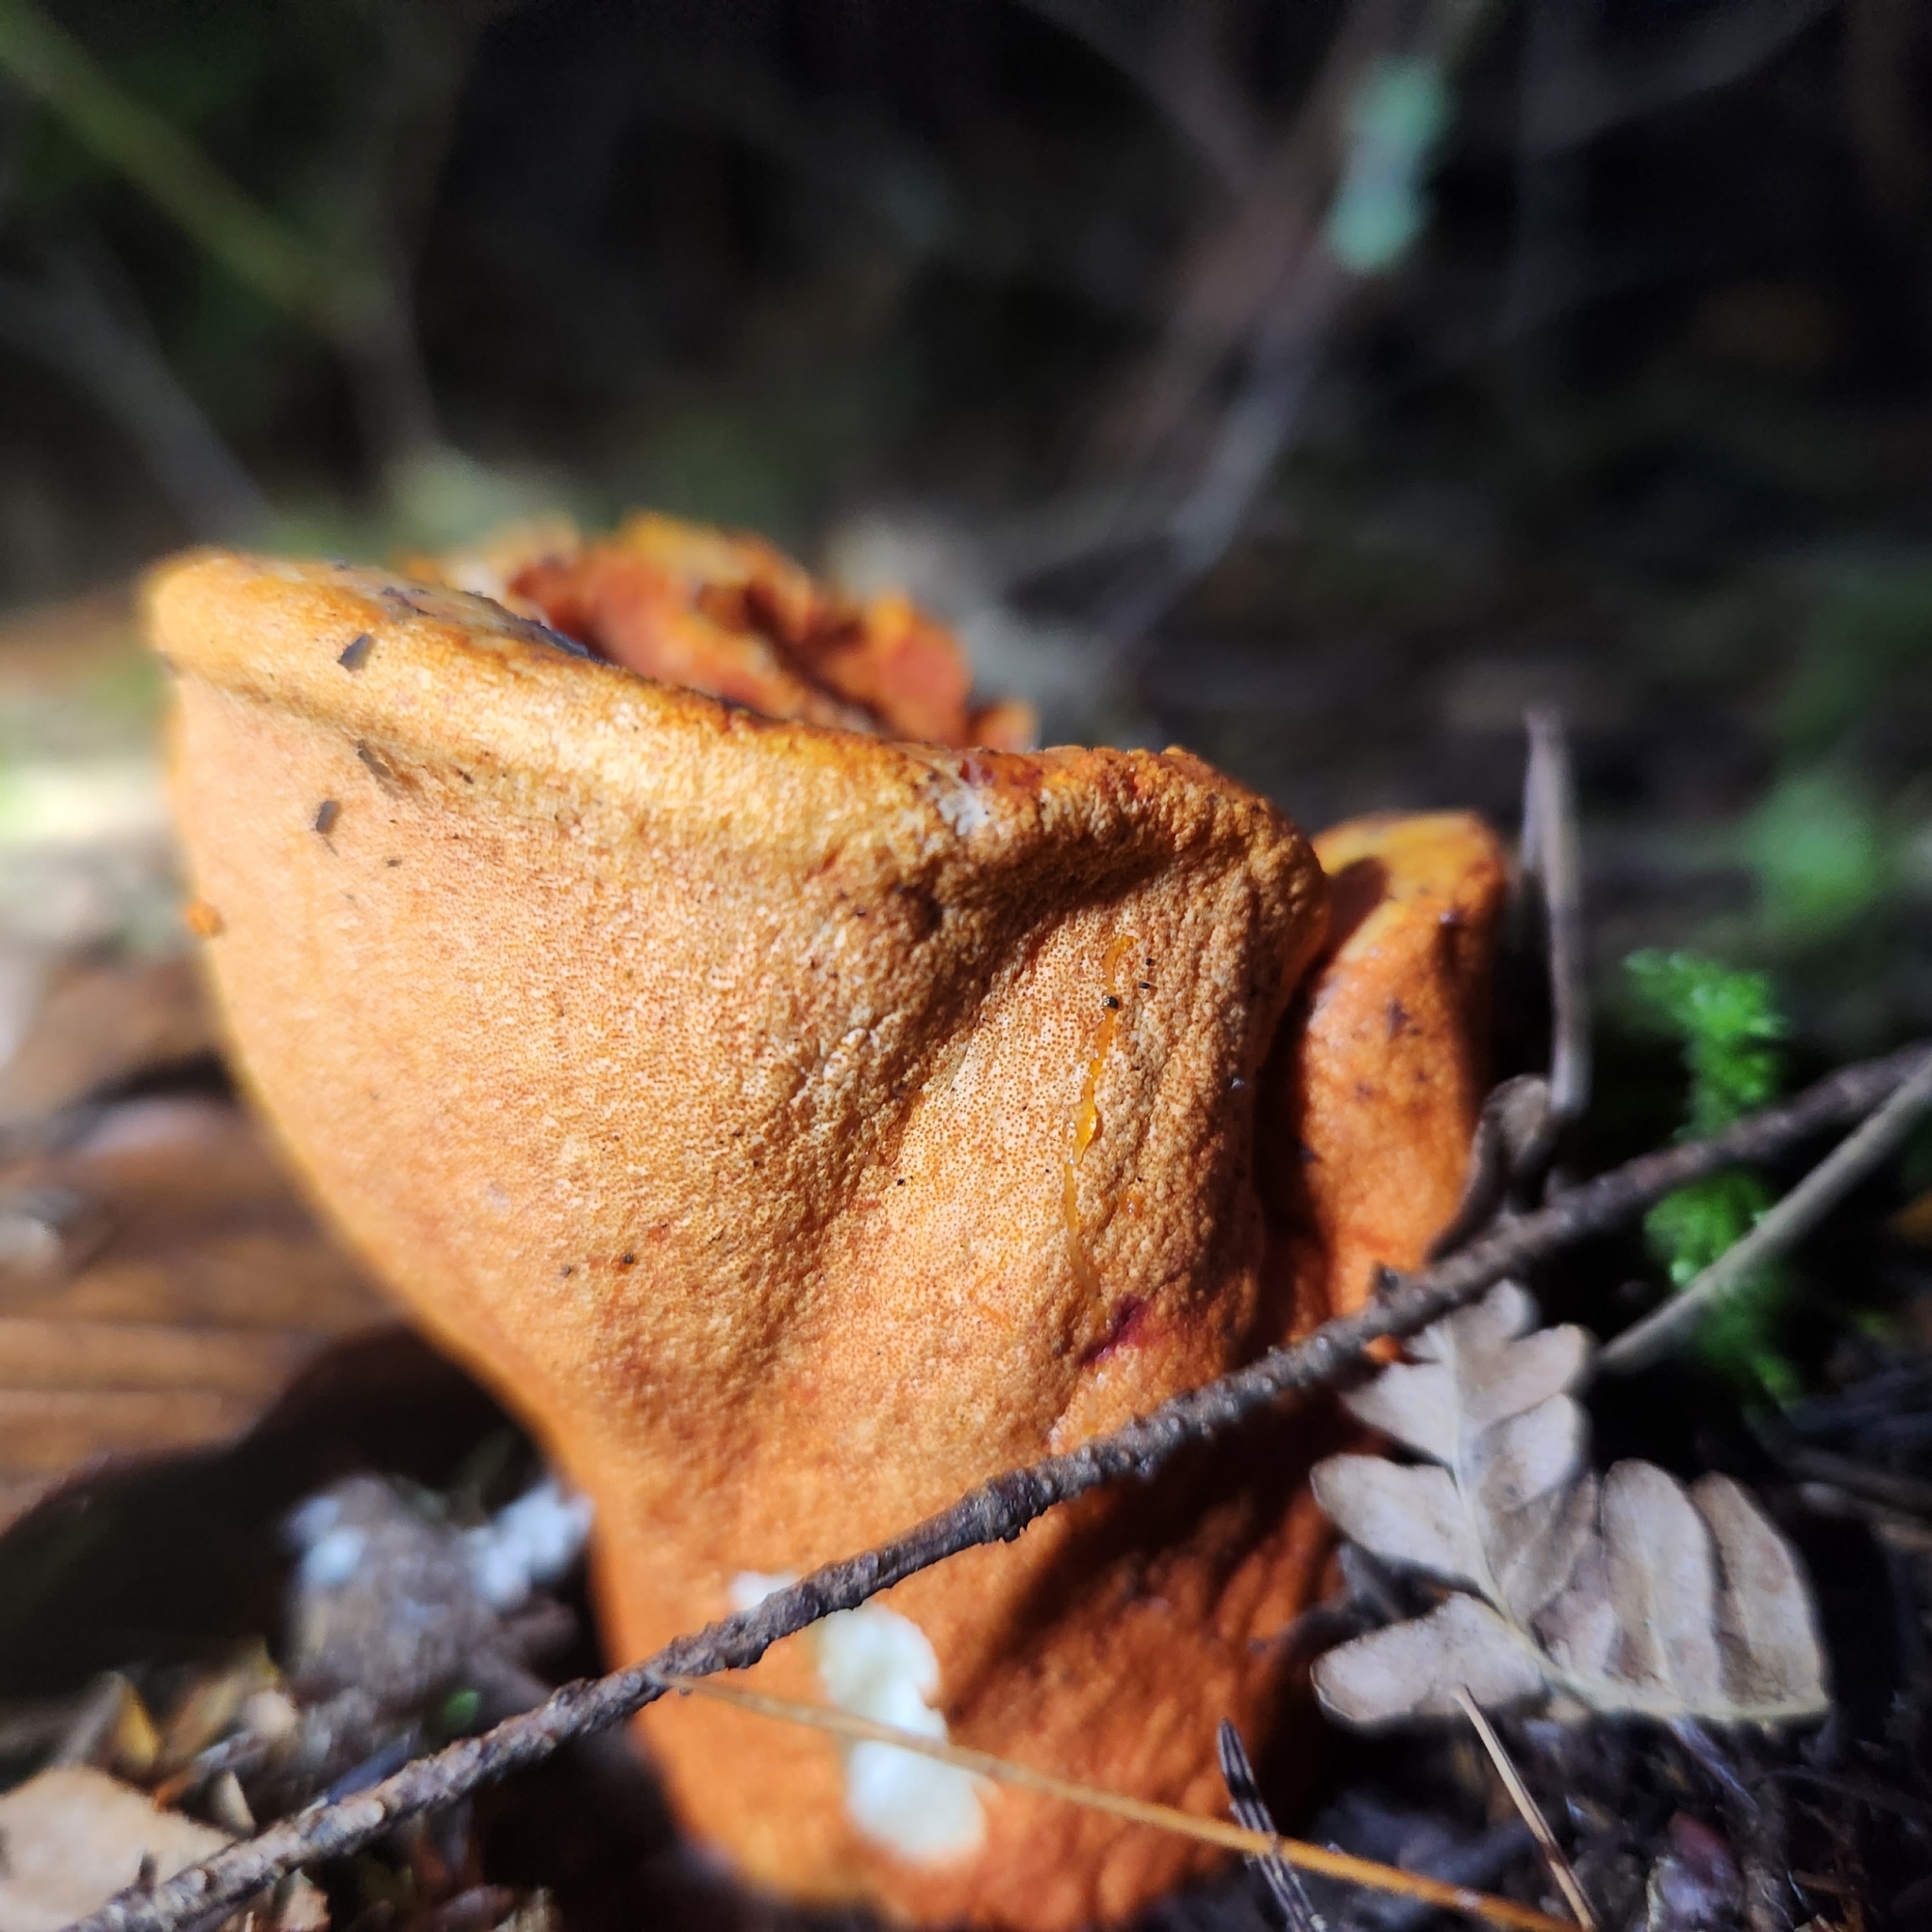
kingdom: Fungi
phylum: Ascomycota
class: Sordariomycetes
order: Hypocreales
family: Hypocreaceae
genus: Hypomyces
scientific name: Hypomyces lactifluorum
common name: Lobster mushroom
